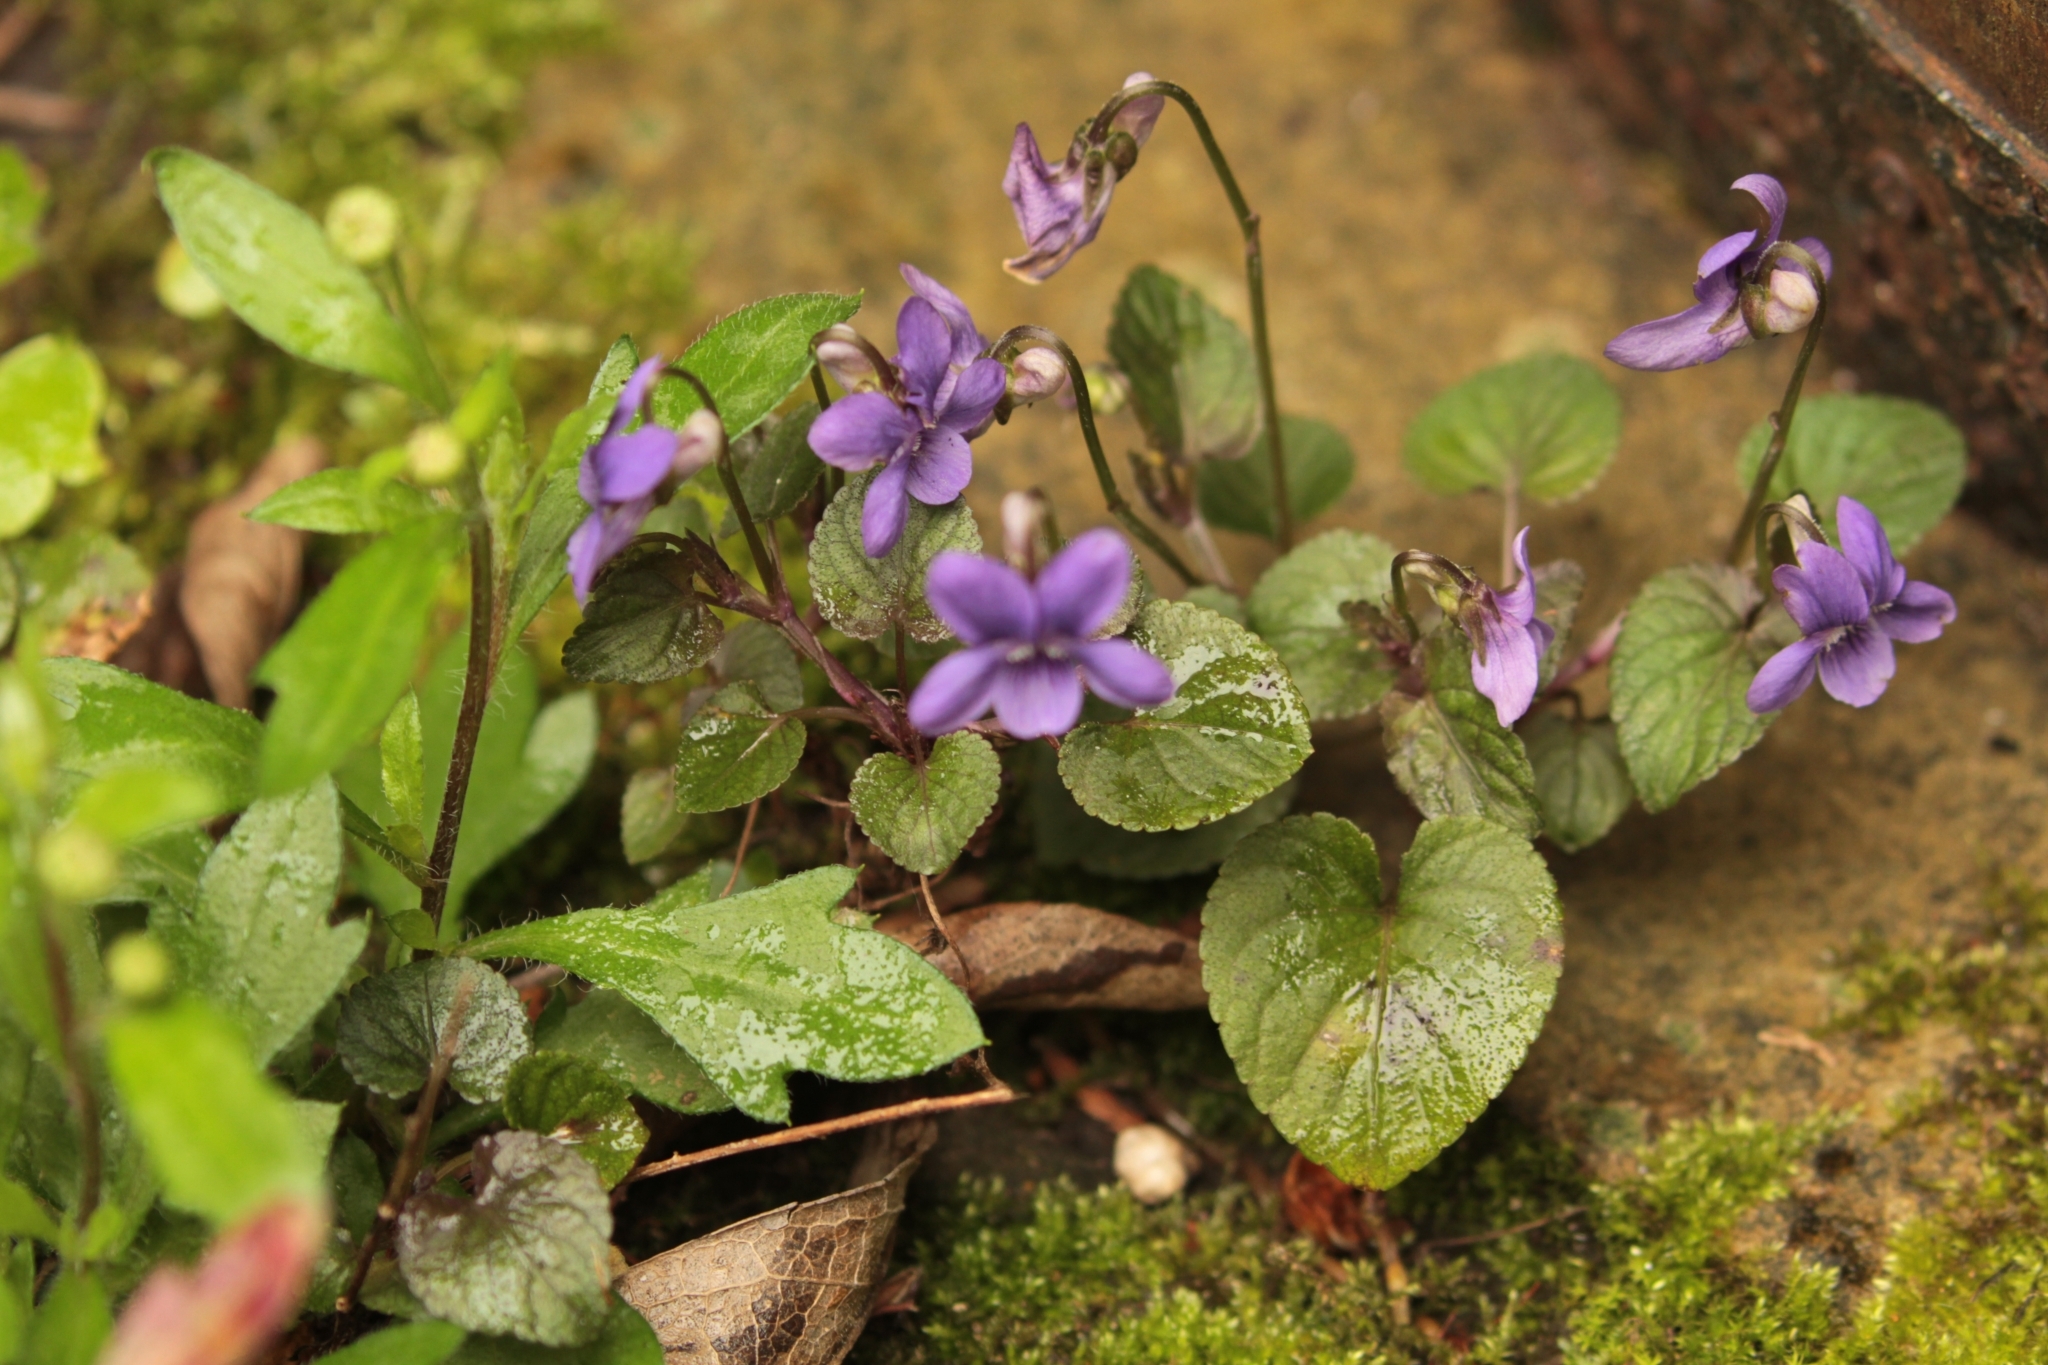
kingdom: Plantae
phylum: Tracheophyta
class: Magnoliopsida
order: Malpighiales
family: Violaceae
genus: Viola
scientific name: Viola riviniana
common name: Common dog-violet
